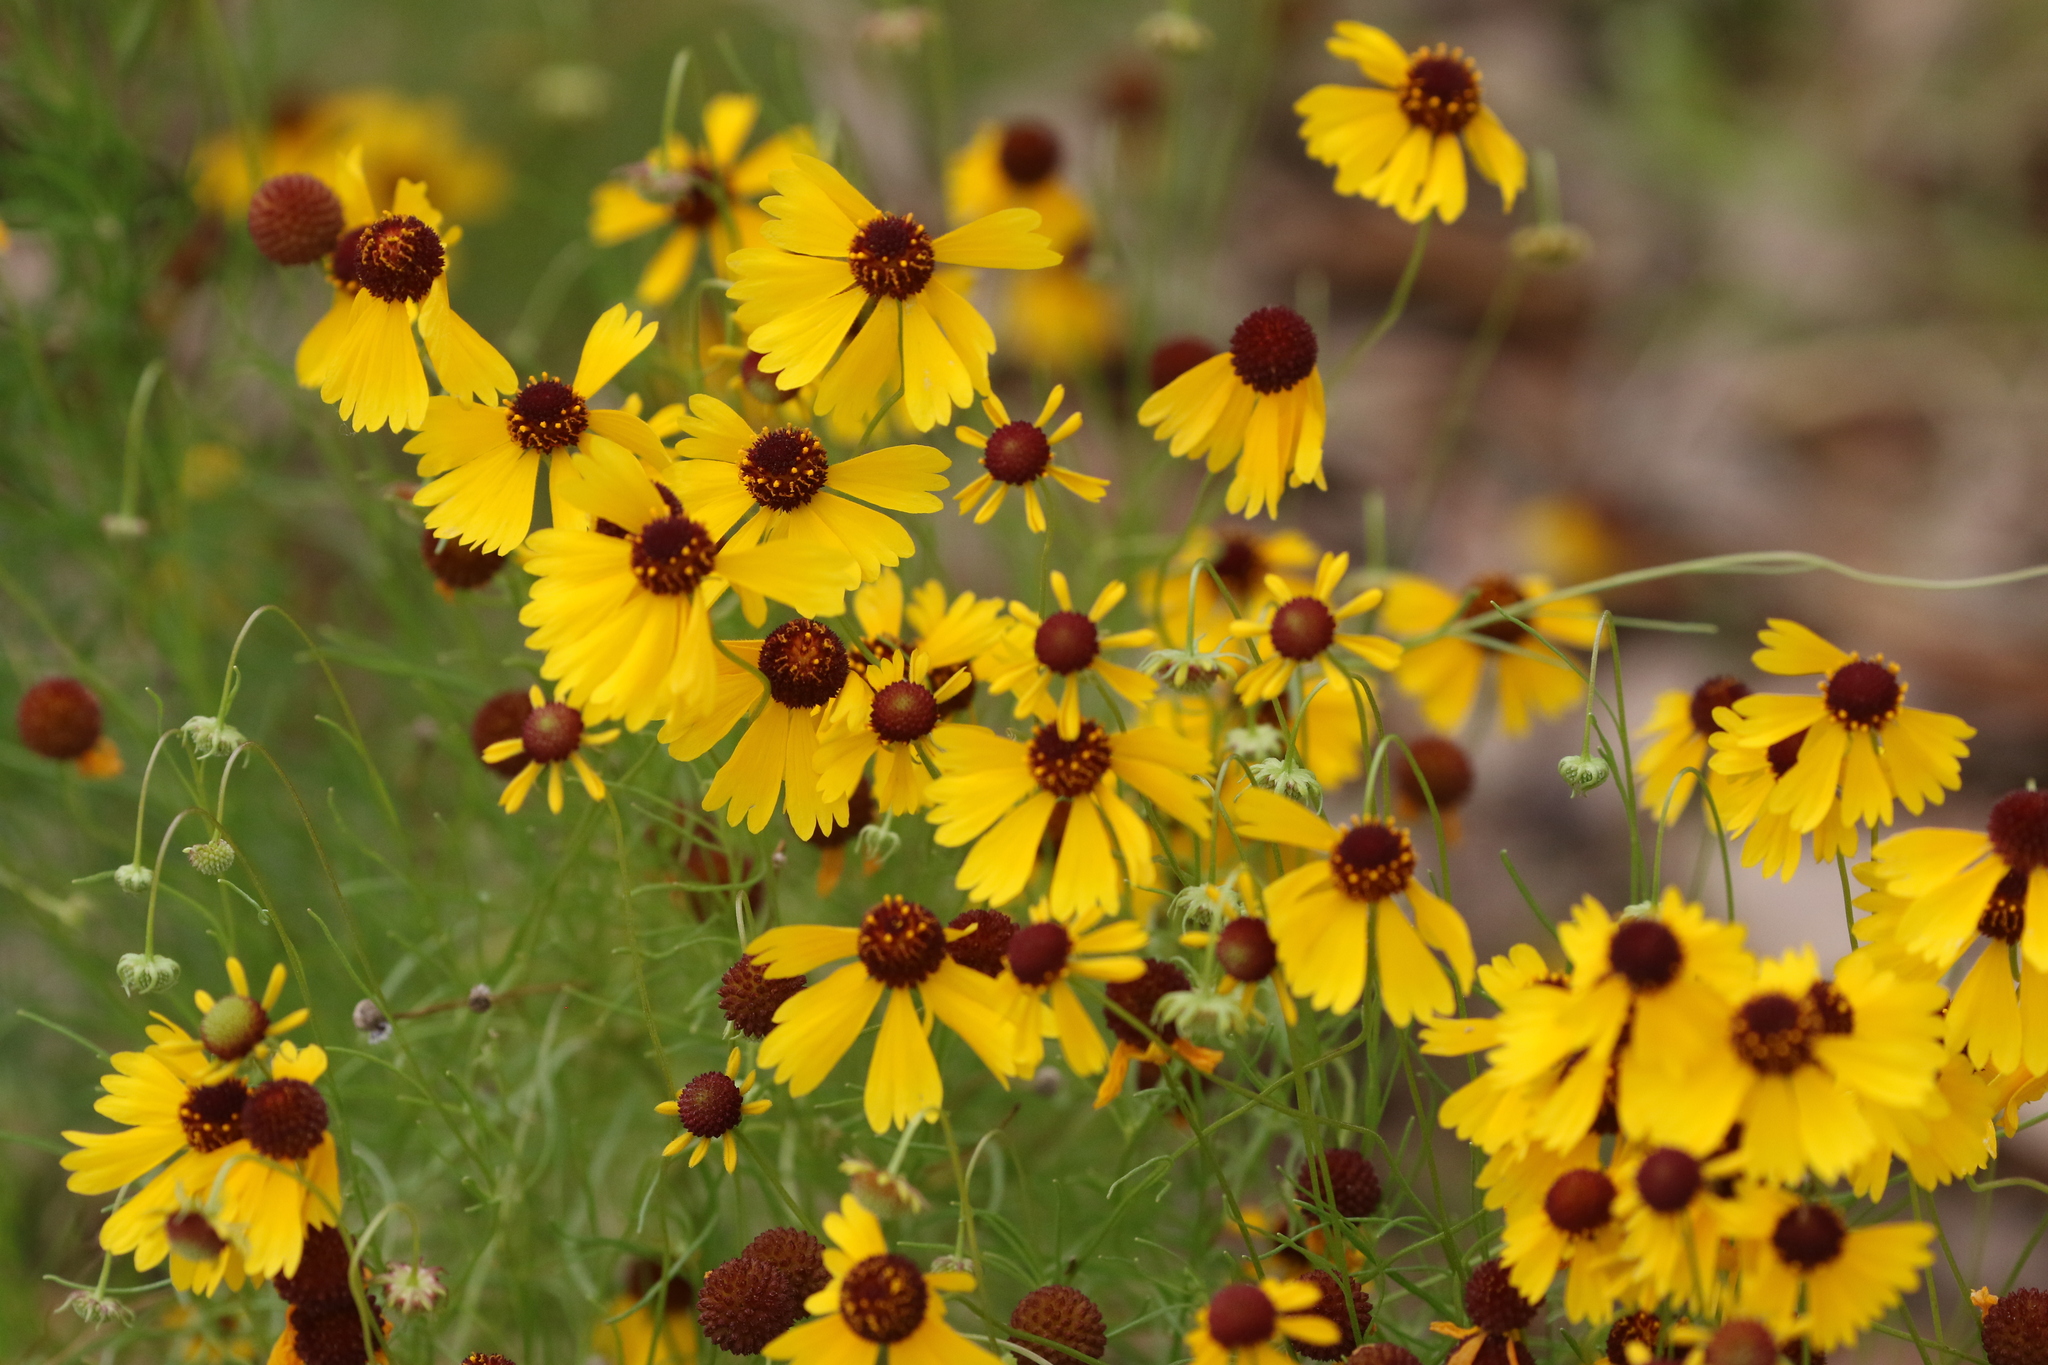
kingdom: Plantae
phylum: Tracheophyta
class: Magnoliopsida
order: Asterales
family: Asteraceae
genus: Helenium
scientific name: Helenium amarum
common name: Bitter sneezeweed
